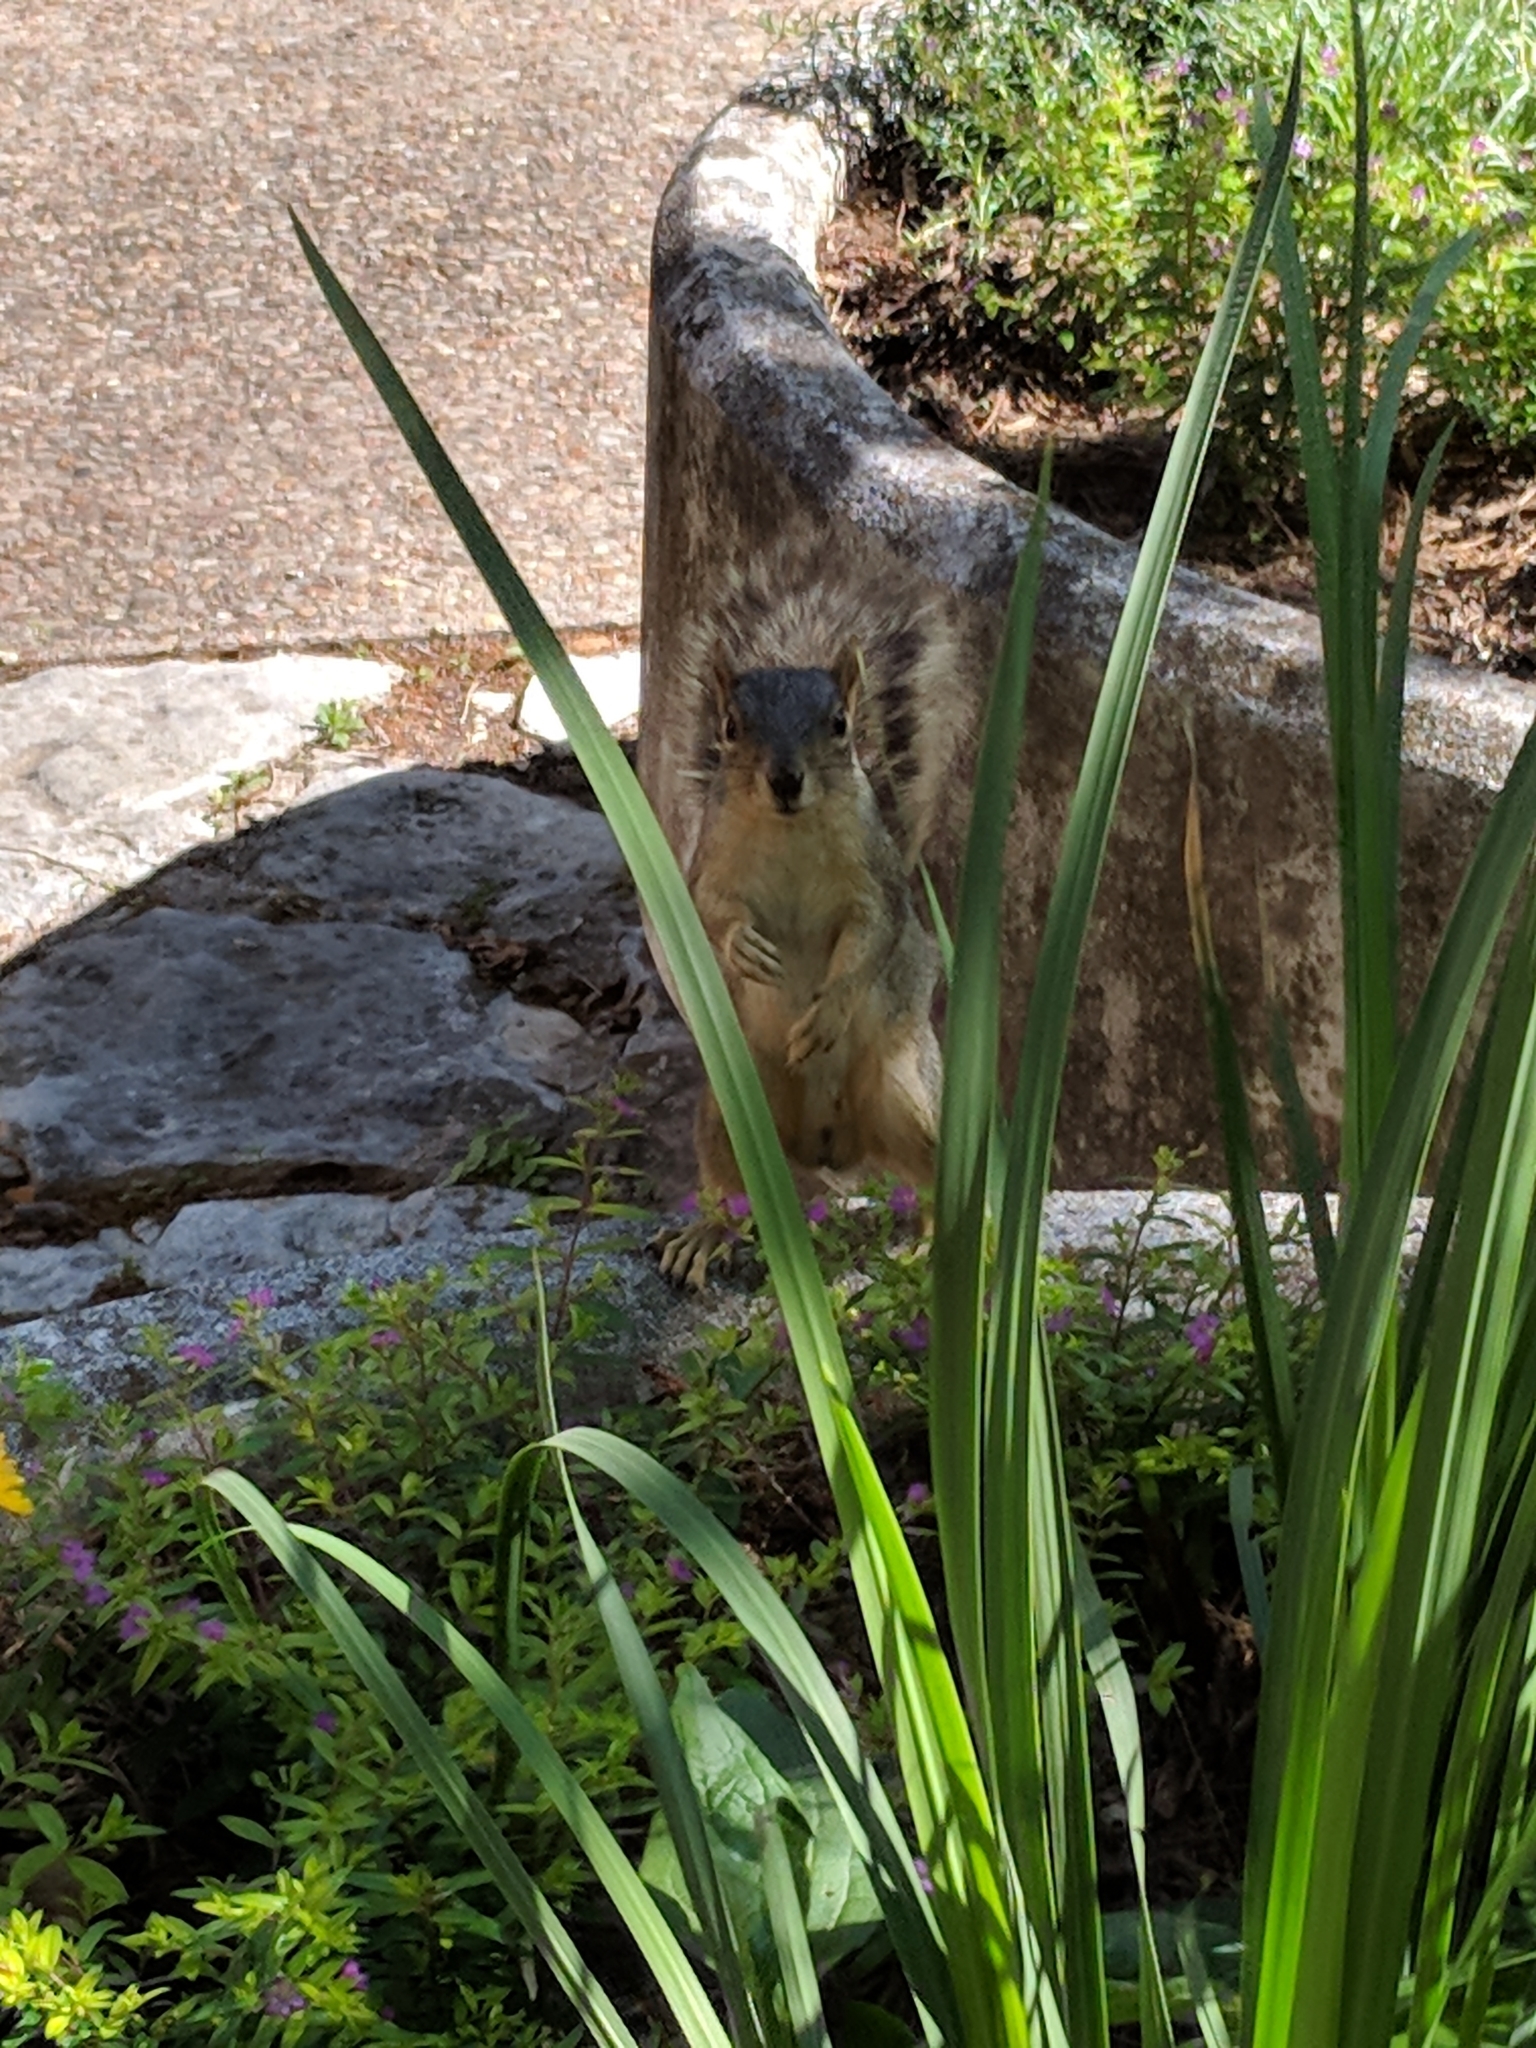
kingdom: Animalia
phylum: Chordata
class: Mammalia
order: Rodentia
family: Sciuridae
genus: Sciurus
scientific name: Sciurus niger
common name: Fox squirrel
